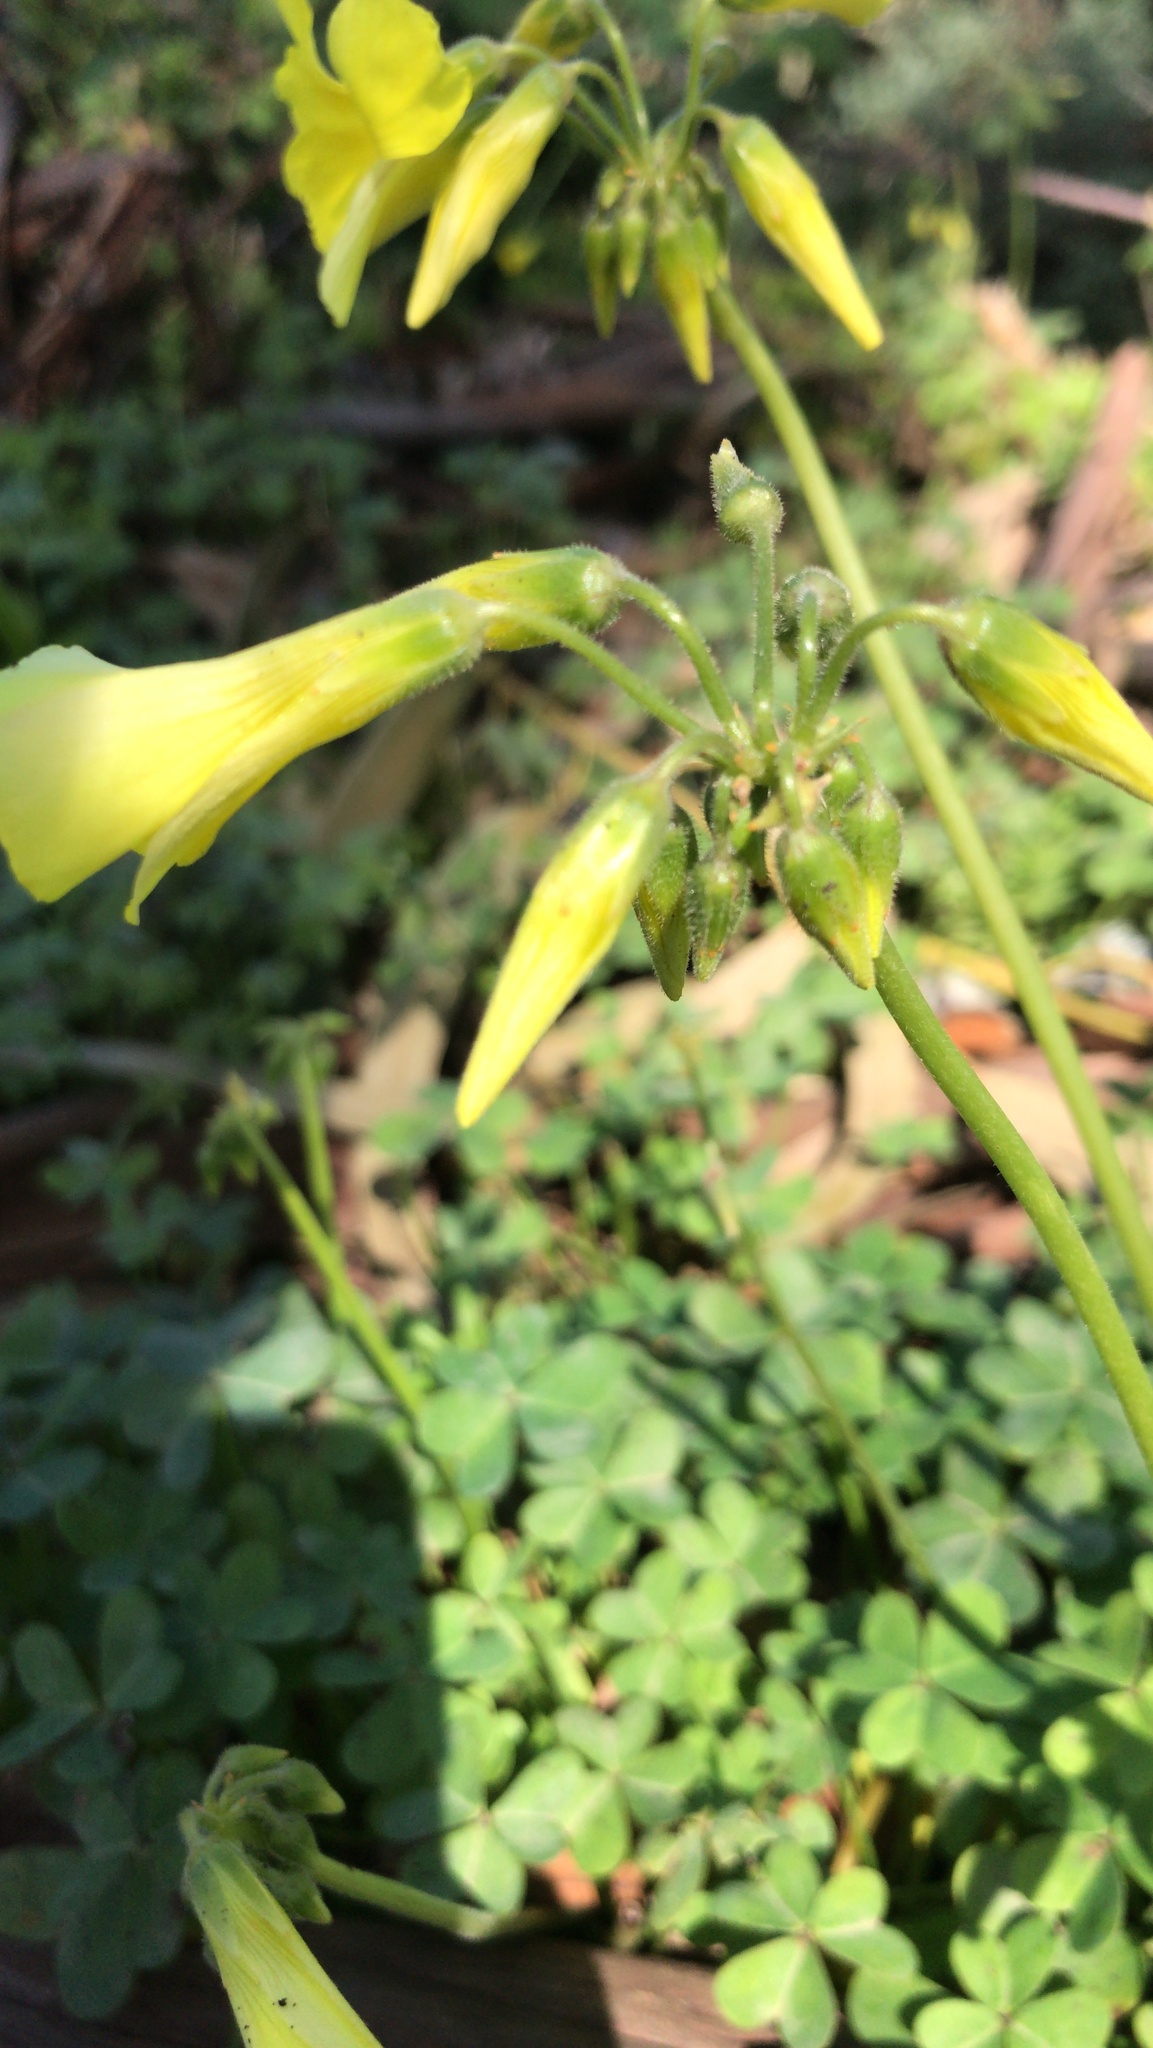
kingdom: Plantae
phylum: Tracheophyta
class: Magnoliopsida
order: Oxalidales
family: Oxalidaceae
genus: Oxalis
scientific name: Oxalis pes-caprae
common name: Bermuda-buttercup
